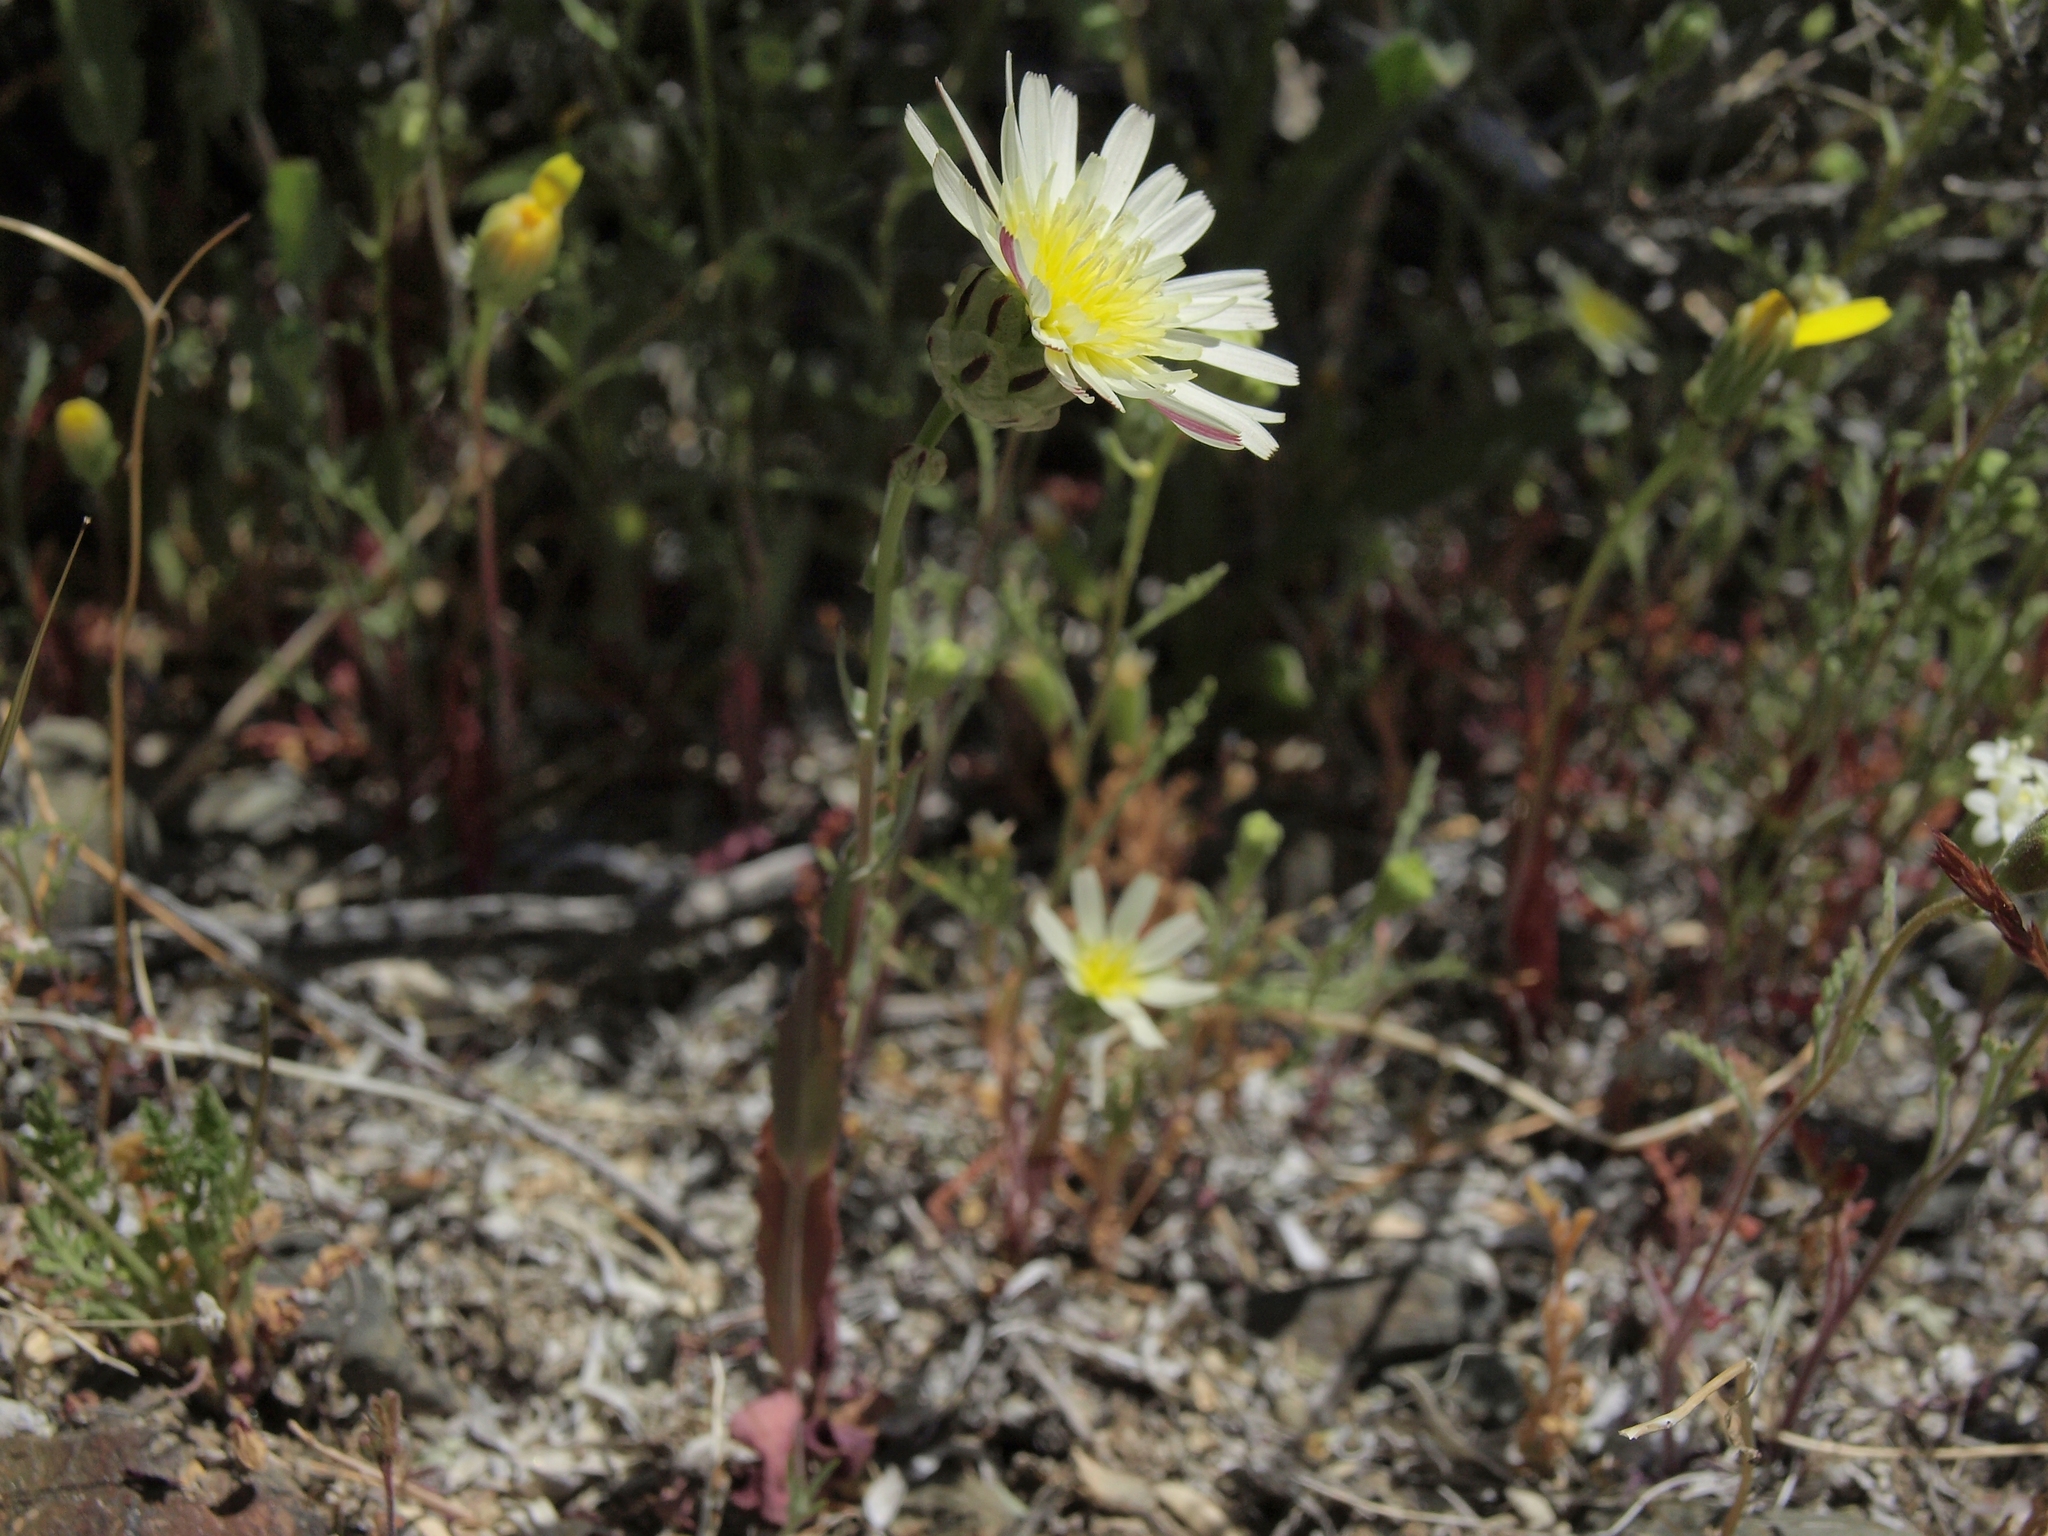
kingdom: Plantae
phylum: Tracheophyta
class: Magnoliopsida
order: Asterales
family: Asteraceae
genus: Malacothrix
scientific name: Malacothrix coulteri
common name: Snake's-head
